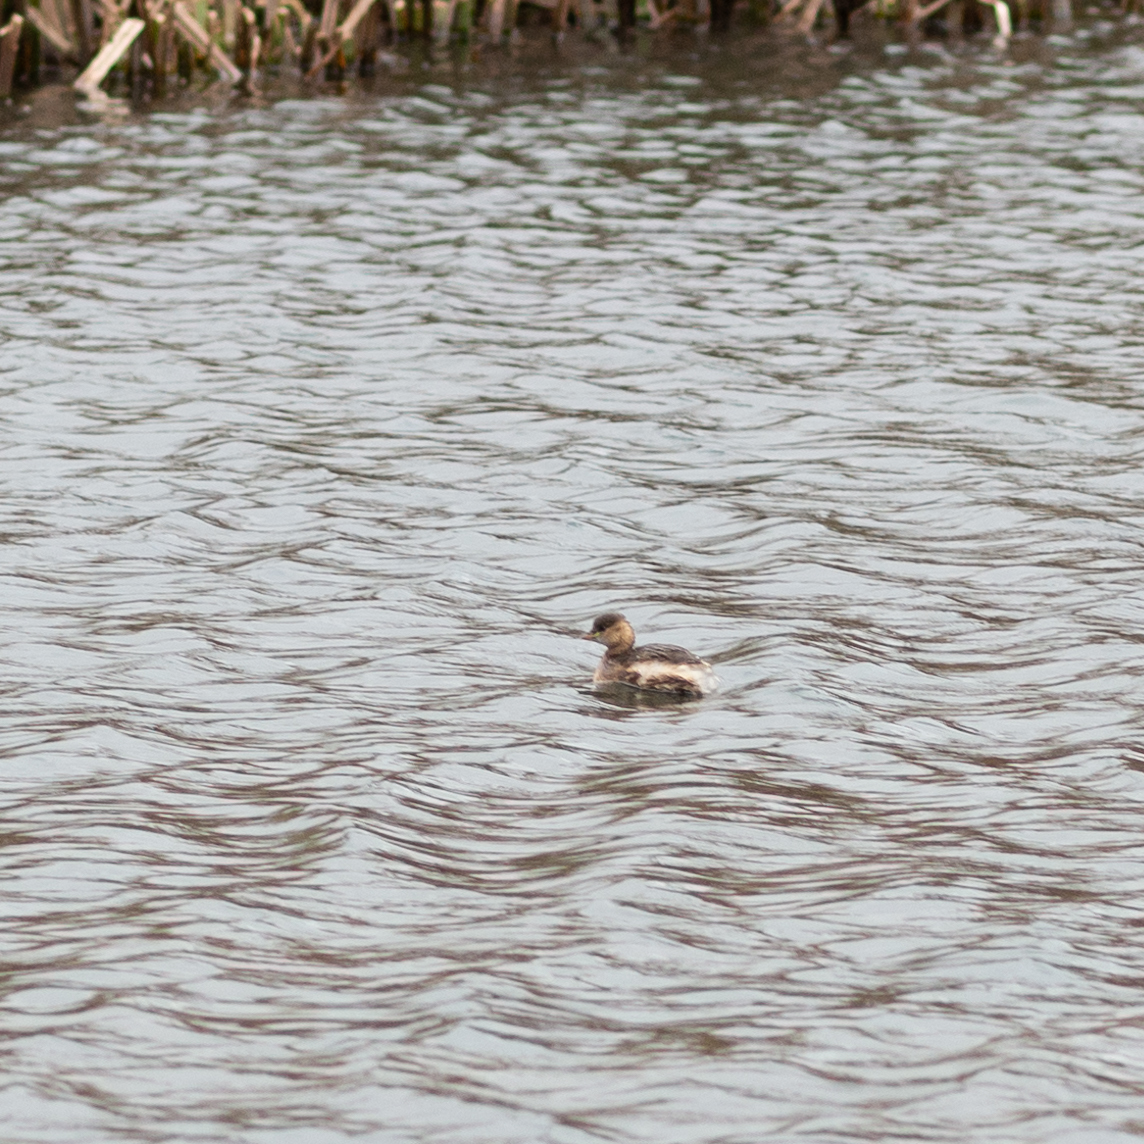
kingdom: Animalia
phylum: Chordata
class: Aves
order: Podicipediformes
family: Podicipedidae
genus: Tachybaptus
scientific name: Tachybaptus ruficollis
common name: Little grebe
